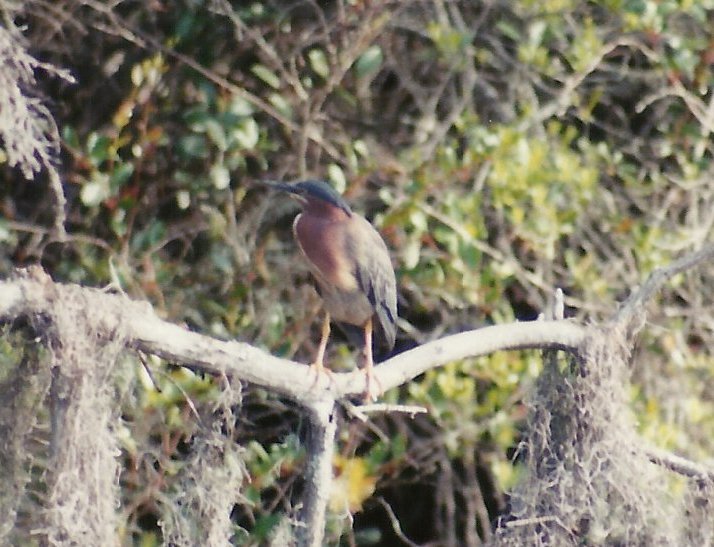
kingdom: Animalia
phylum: Chordata
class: Aves
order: Pelecaniformes
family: Ardeidae
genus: Butorides
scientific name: Butorides virescens
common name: Green heron
